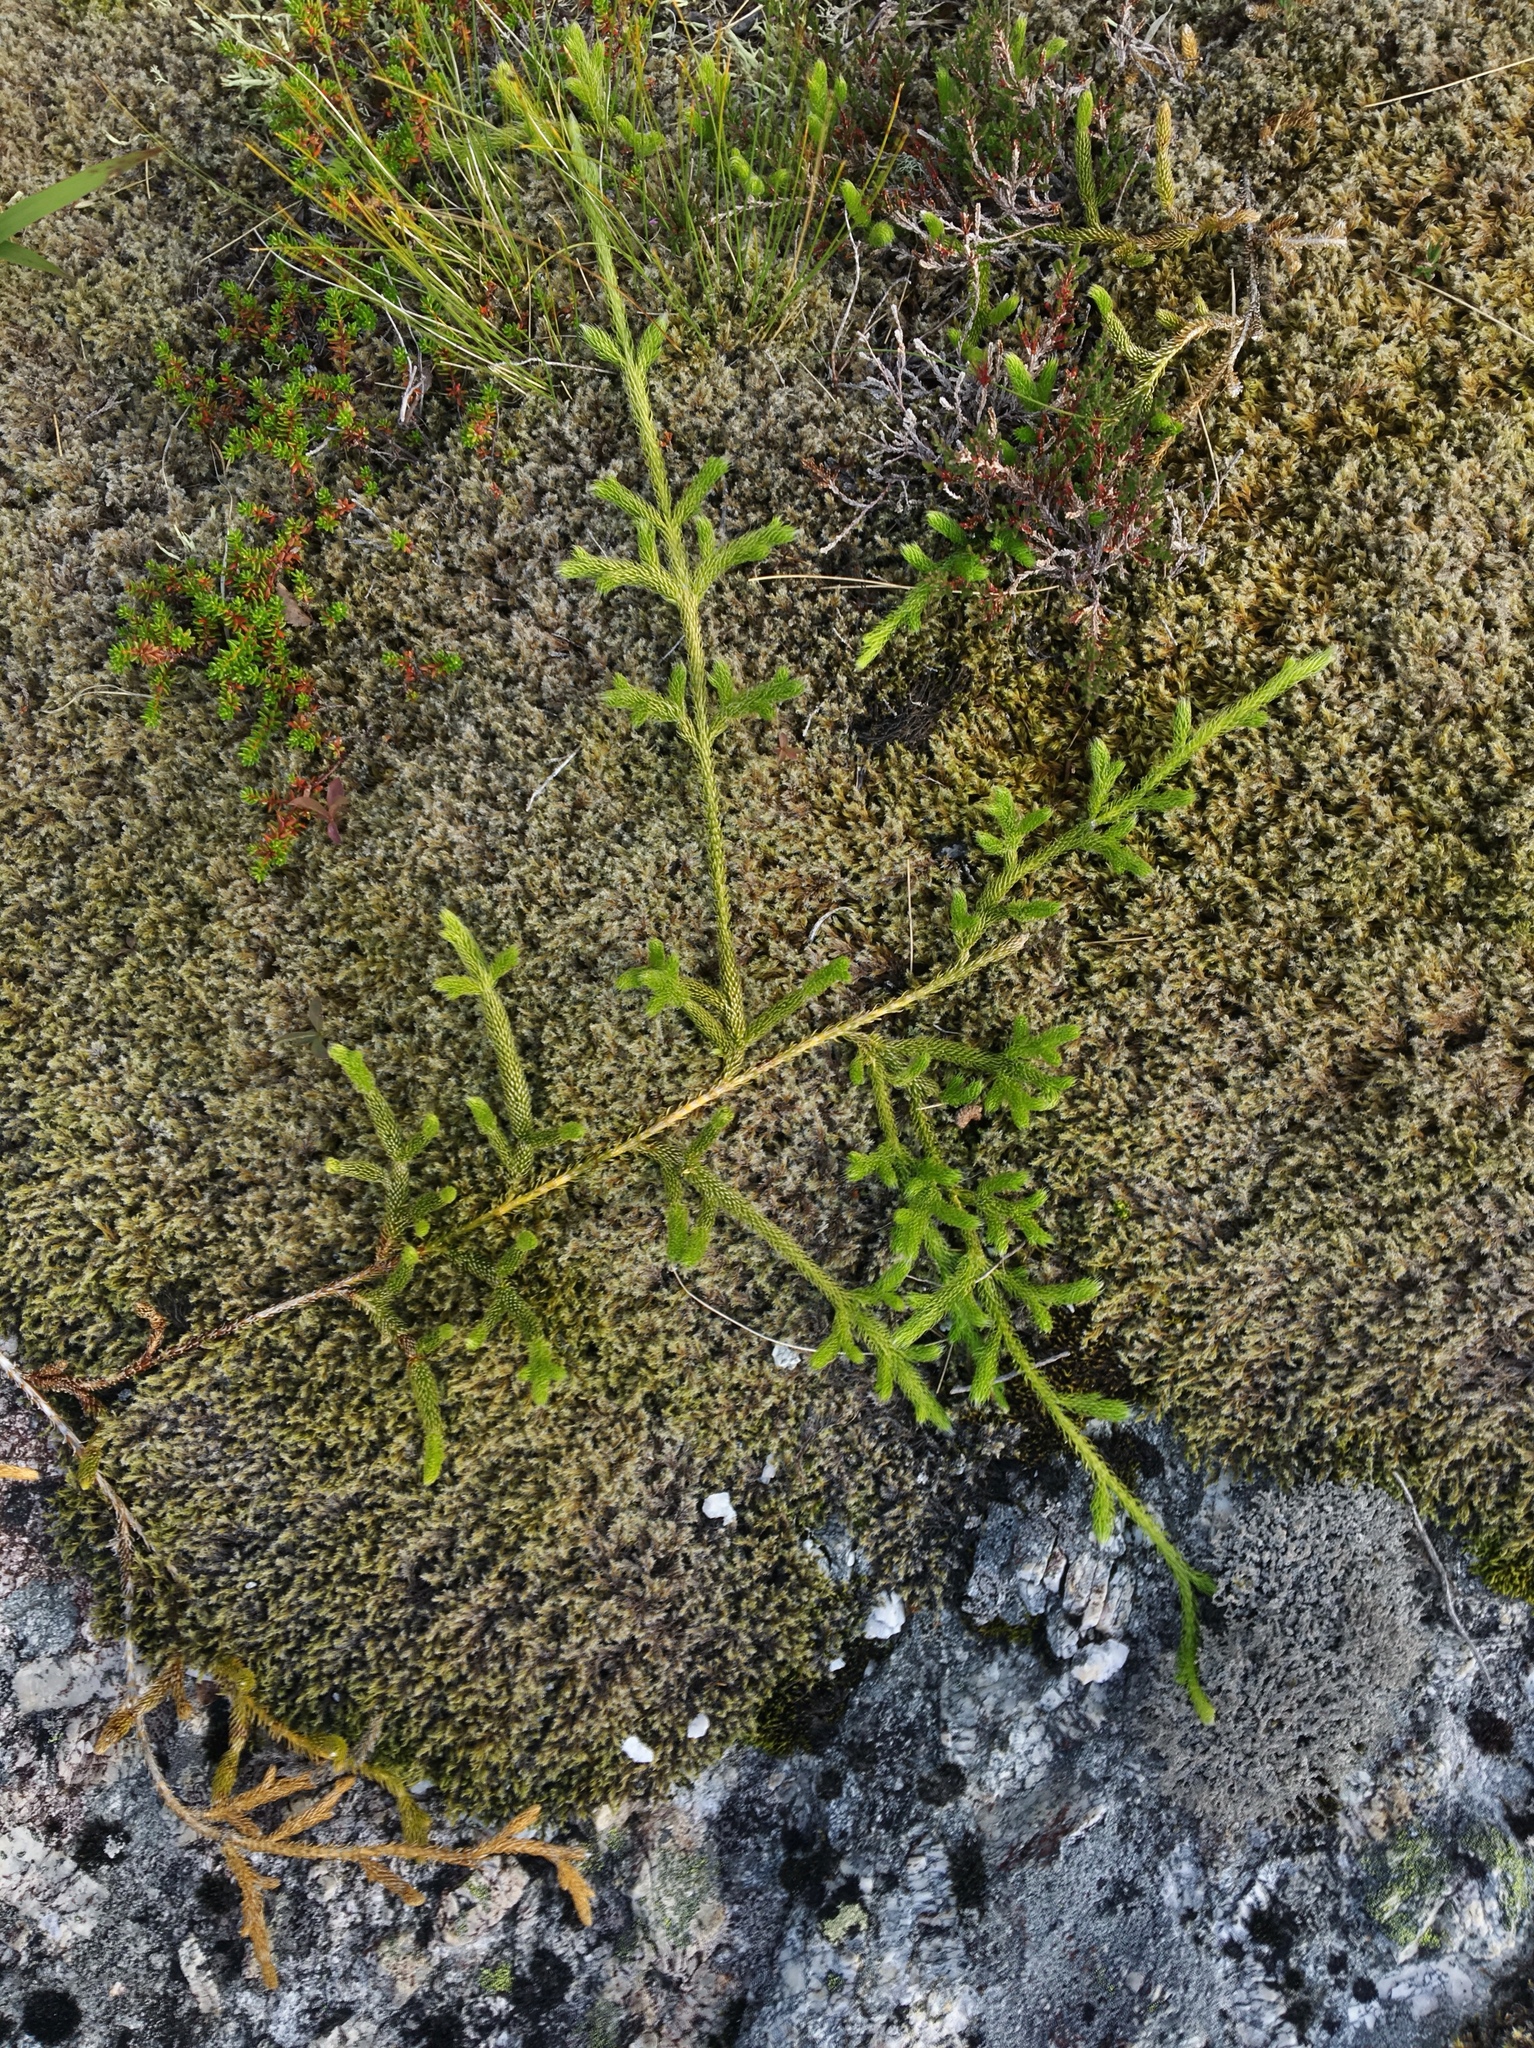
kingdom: Plantae
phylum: Tracheophyta
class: Lycopodiopsida
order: Lycopodiales
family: Lycopodiaceae
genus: Lycopodium
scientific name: Lycopodium clavatum
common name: Stag's-horn clubmoss
